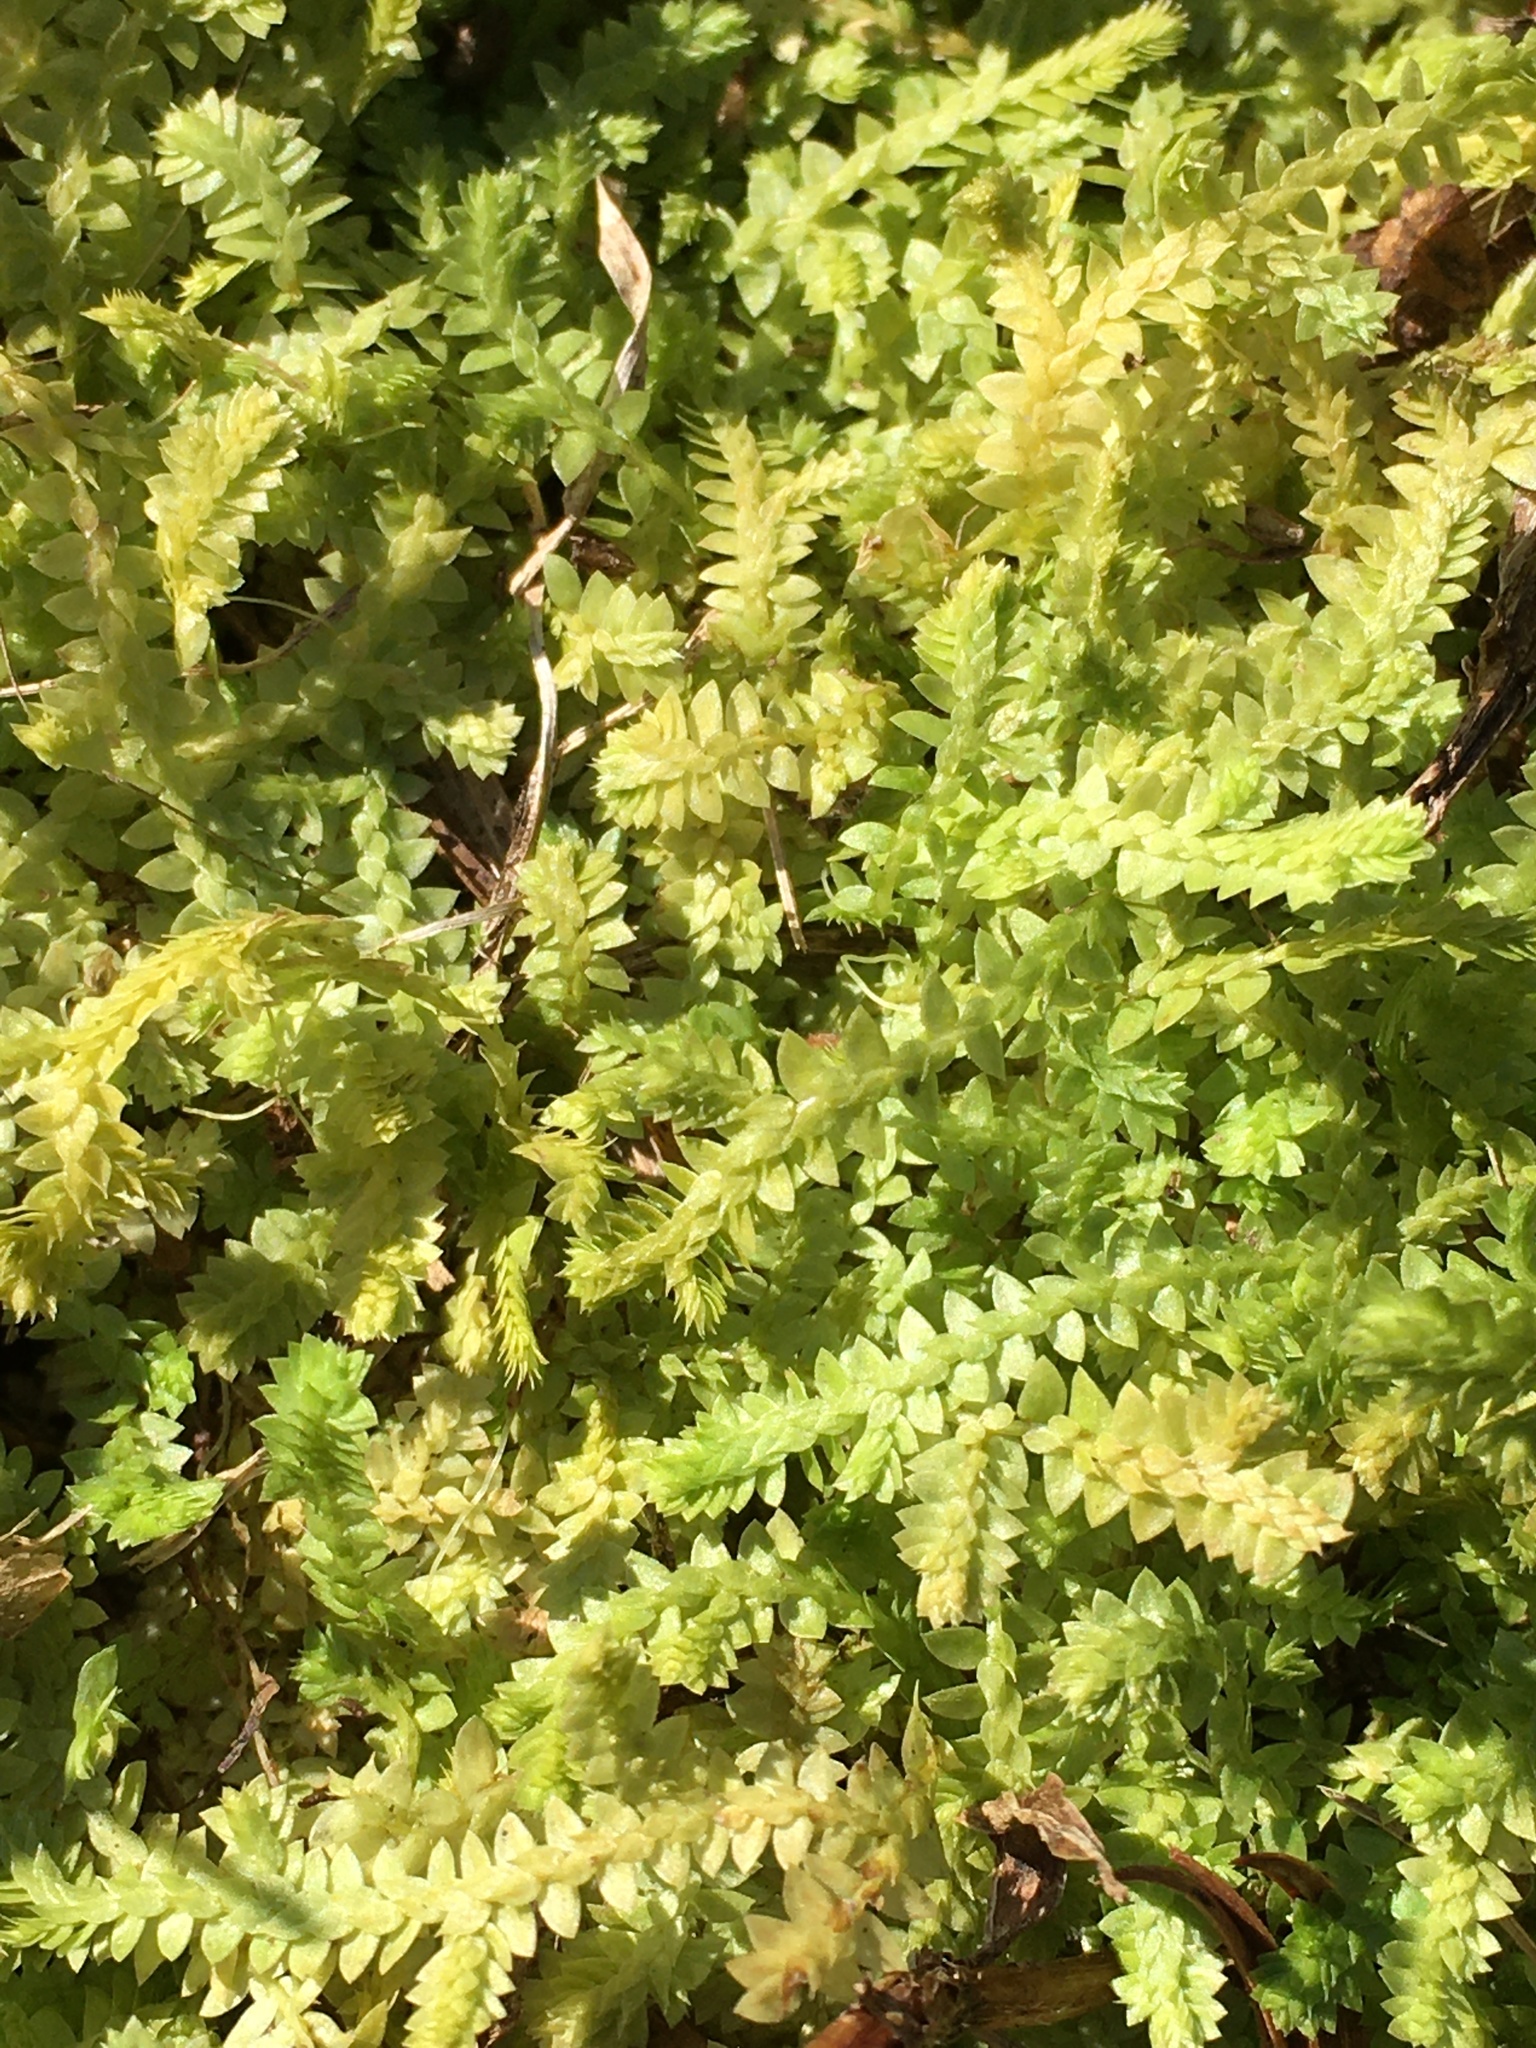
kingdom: Plantae
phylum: Tracheophyta
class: Lycopodiopsida
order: Selaginellales
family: Selaginellaceae
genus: Selaginella
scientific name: Selaginella apoda
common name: Creeping spikemoss
